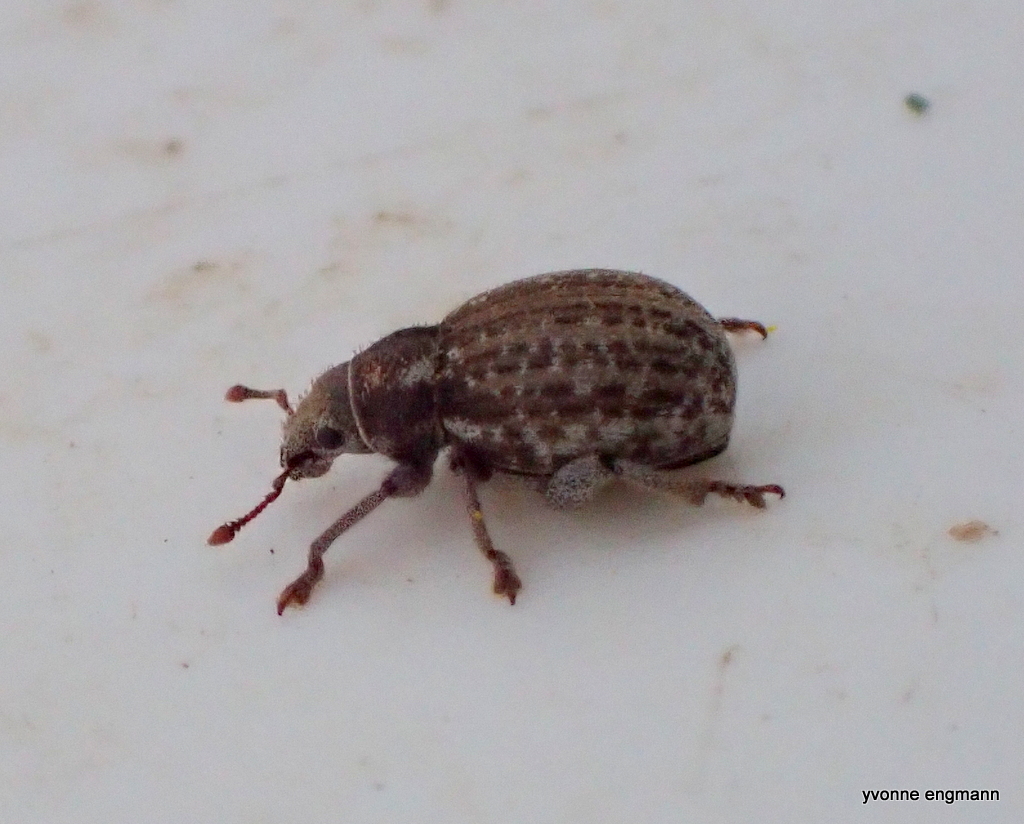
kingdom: Animalia
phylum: Arthropoda
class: Insecta
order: Coleoptera
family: Curculionidae
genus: Philopedon
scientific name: Philopedon plagiatum
